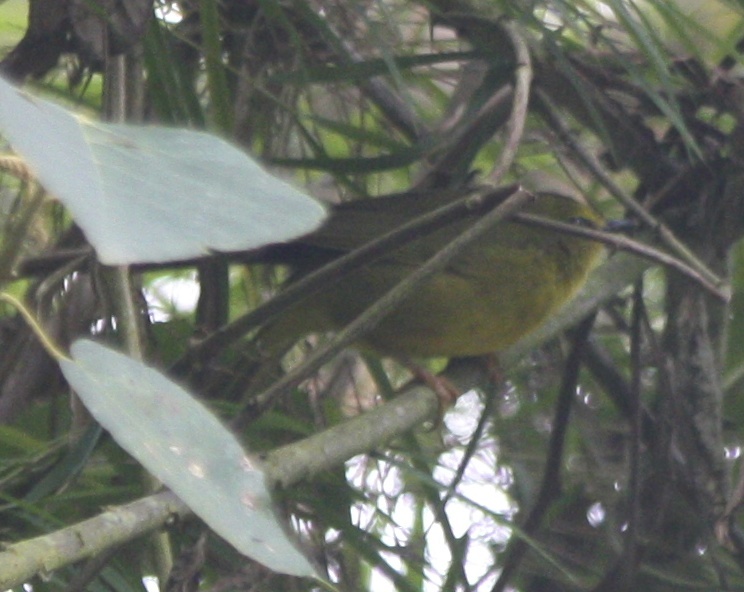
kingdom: Animalia
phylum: Chordata
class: Aves
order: Passeriformes
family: Parulidae
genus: Myiothlypis
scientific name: Myiothlypis nigrocristata
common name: Black-crested warbler
